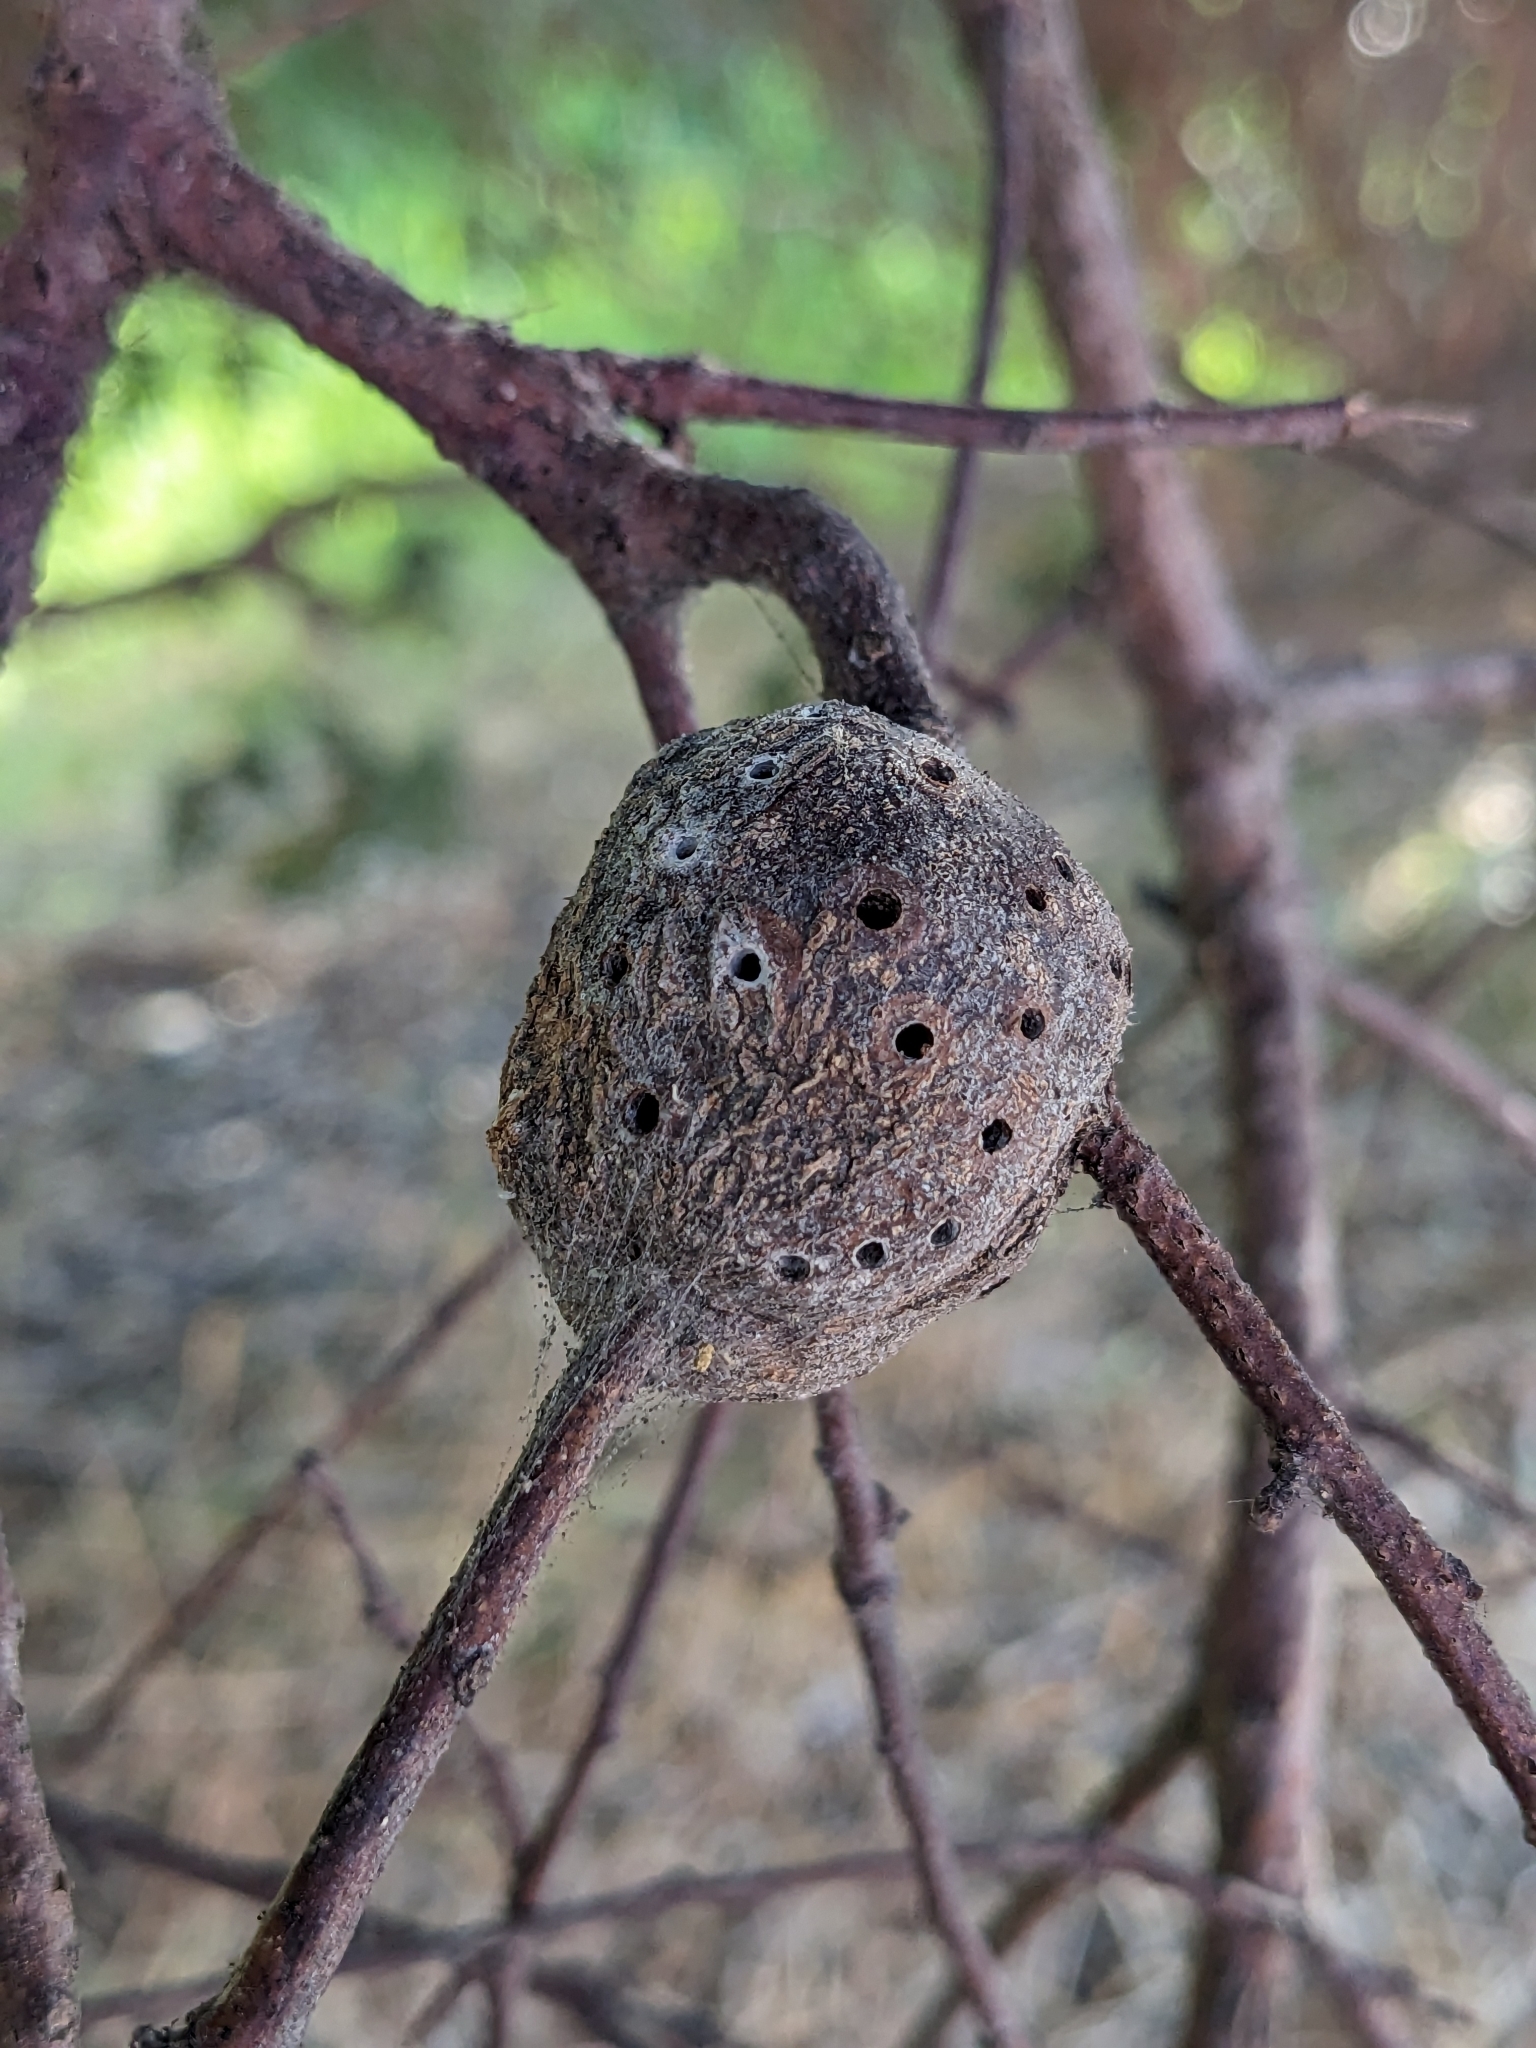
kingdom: Animalia
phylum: Arthropoda
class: Insecta
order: Hymenoptera
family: Cynipidae
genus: Callirhytis
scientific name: Callirhytis
